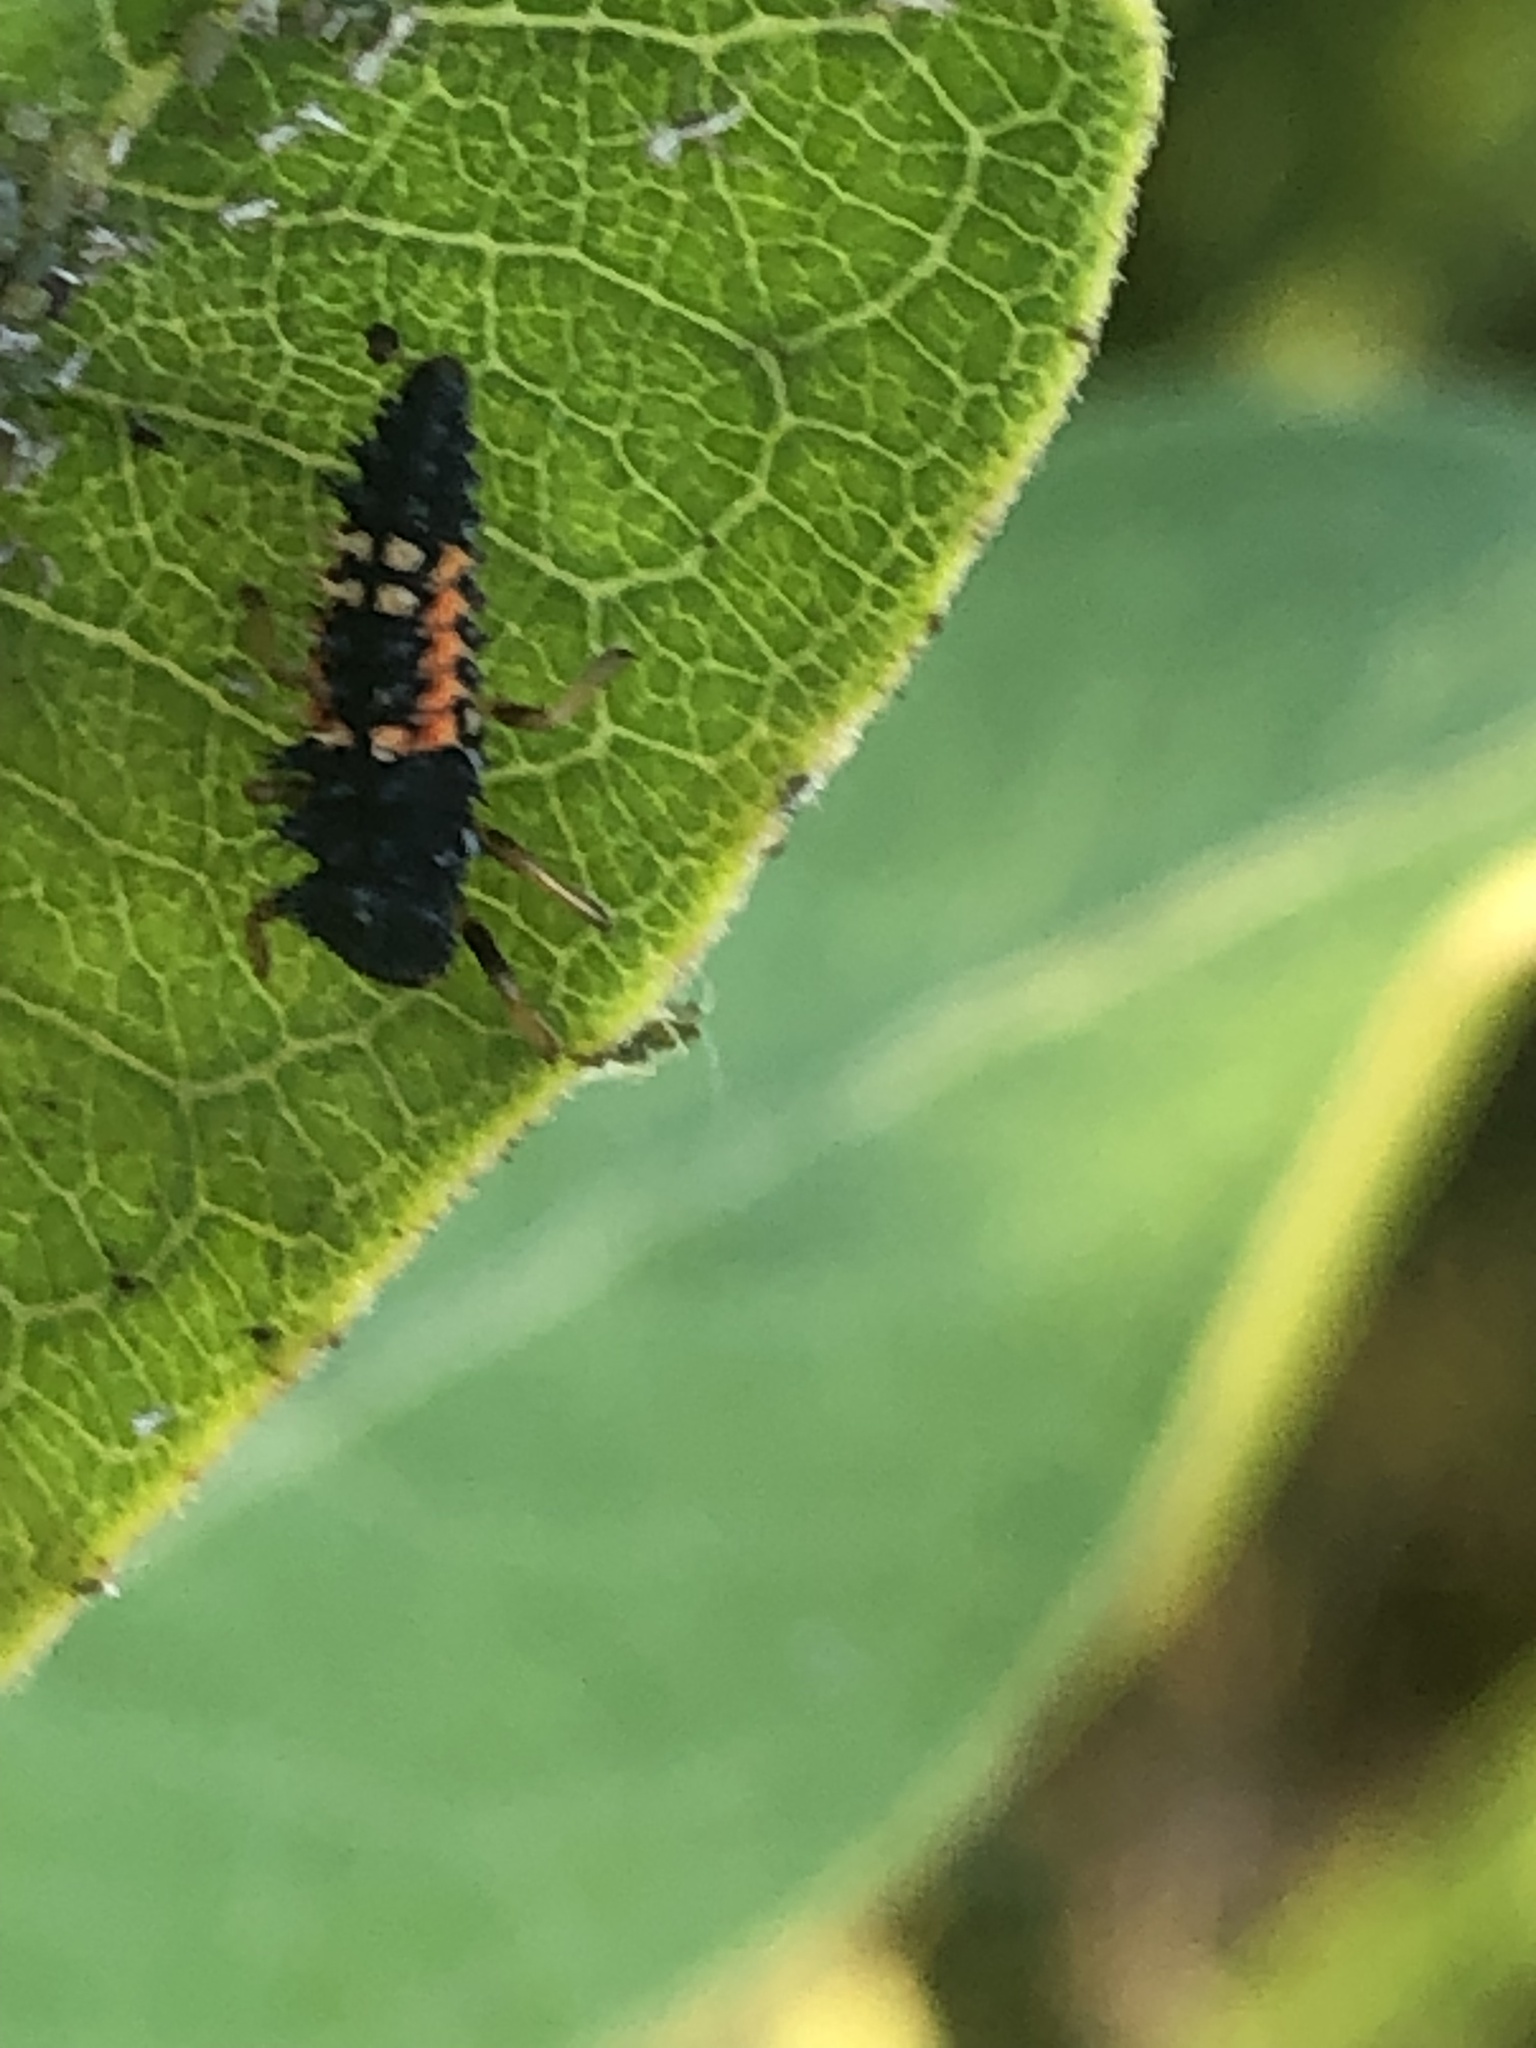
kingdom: Animalia
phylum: Arthropoda
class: Insecta
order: Coleoptera
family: Coccinellidae
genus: Harmonia
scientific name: Harmonia axyridis
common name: Harlequin ladybird
